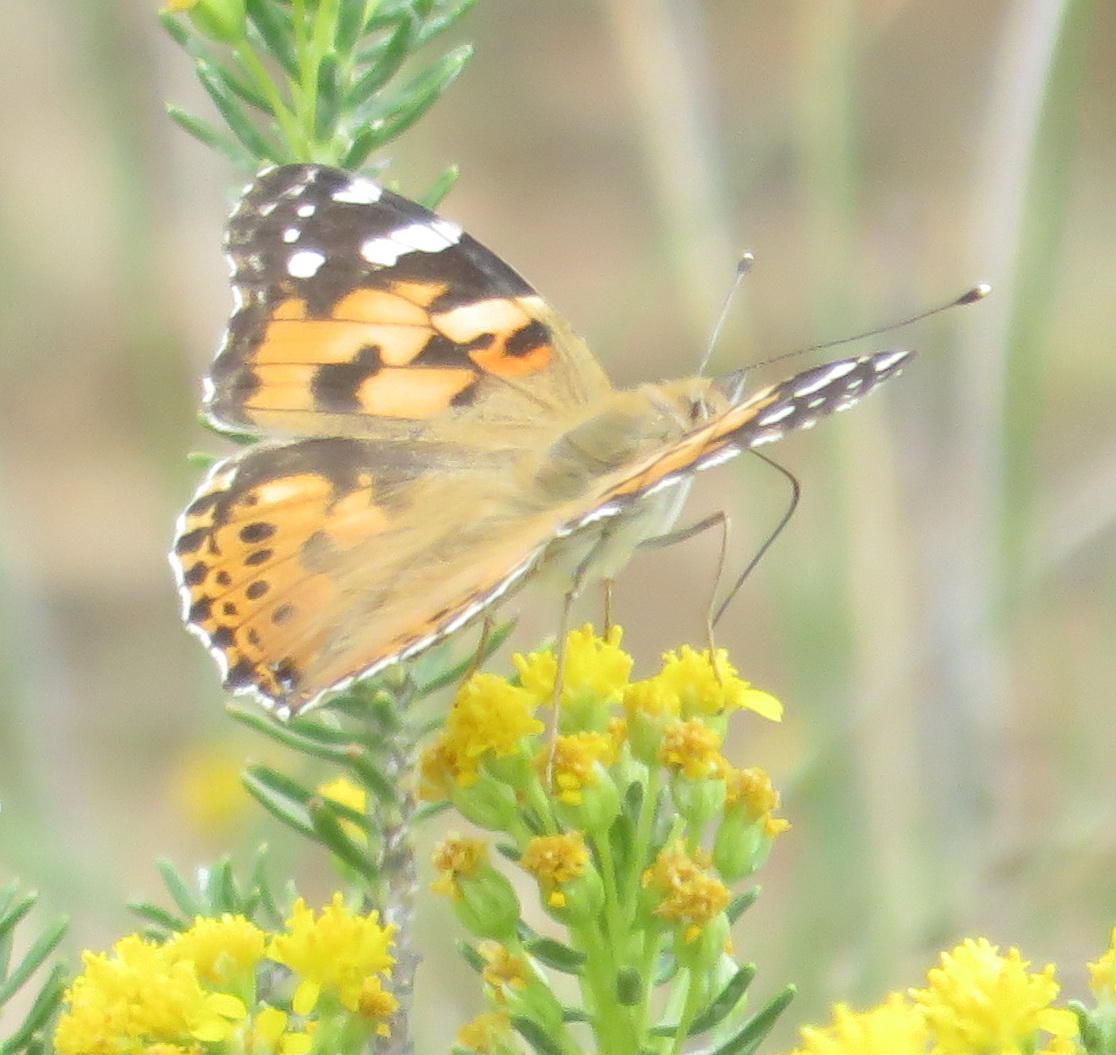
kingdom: Animalia
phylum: Arthropoda
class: Insecta
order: Lepidoptera
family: Nymphalidae
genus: Vanessa
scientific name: Vanessa cardui
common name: Painted lady
